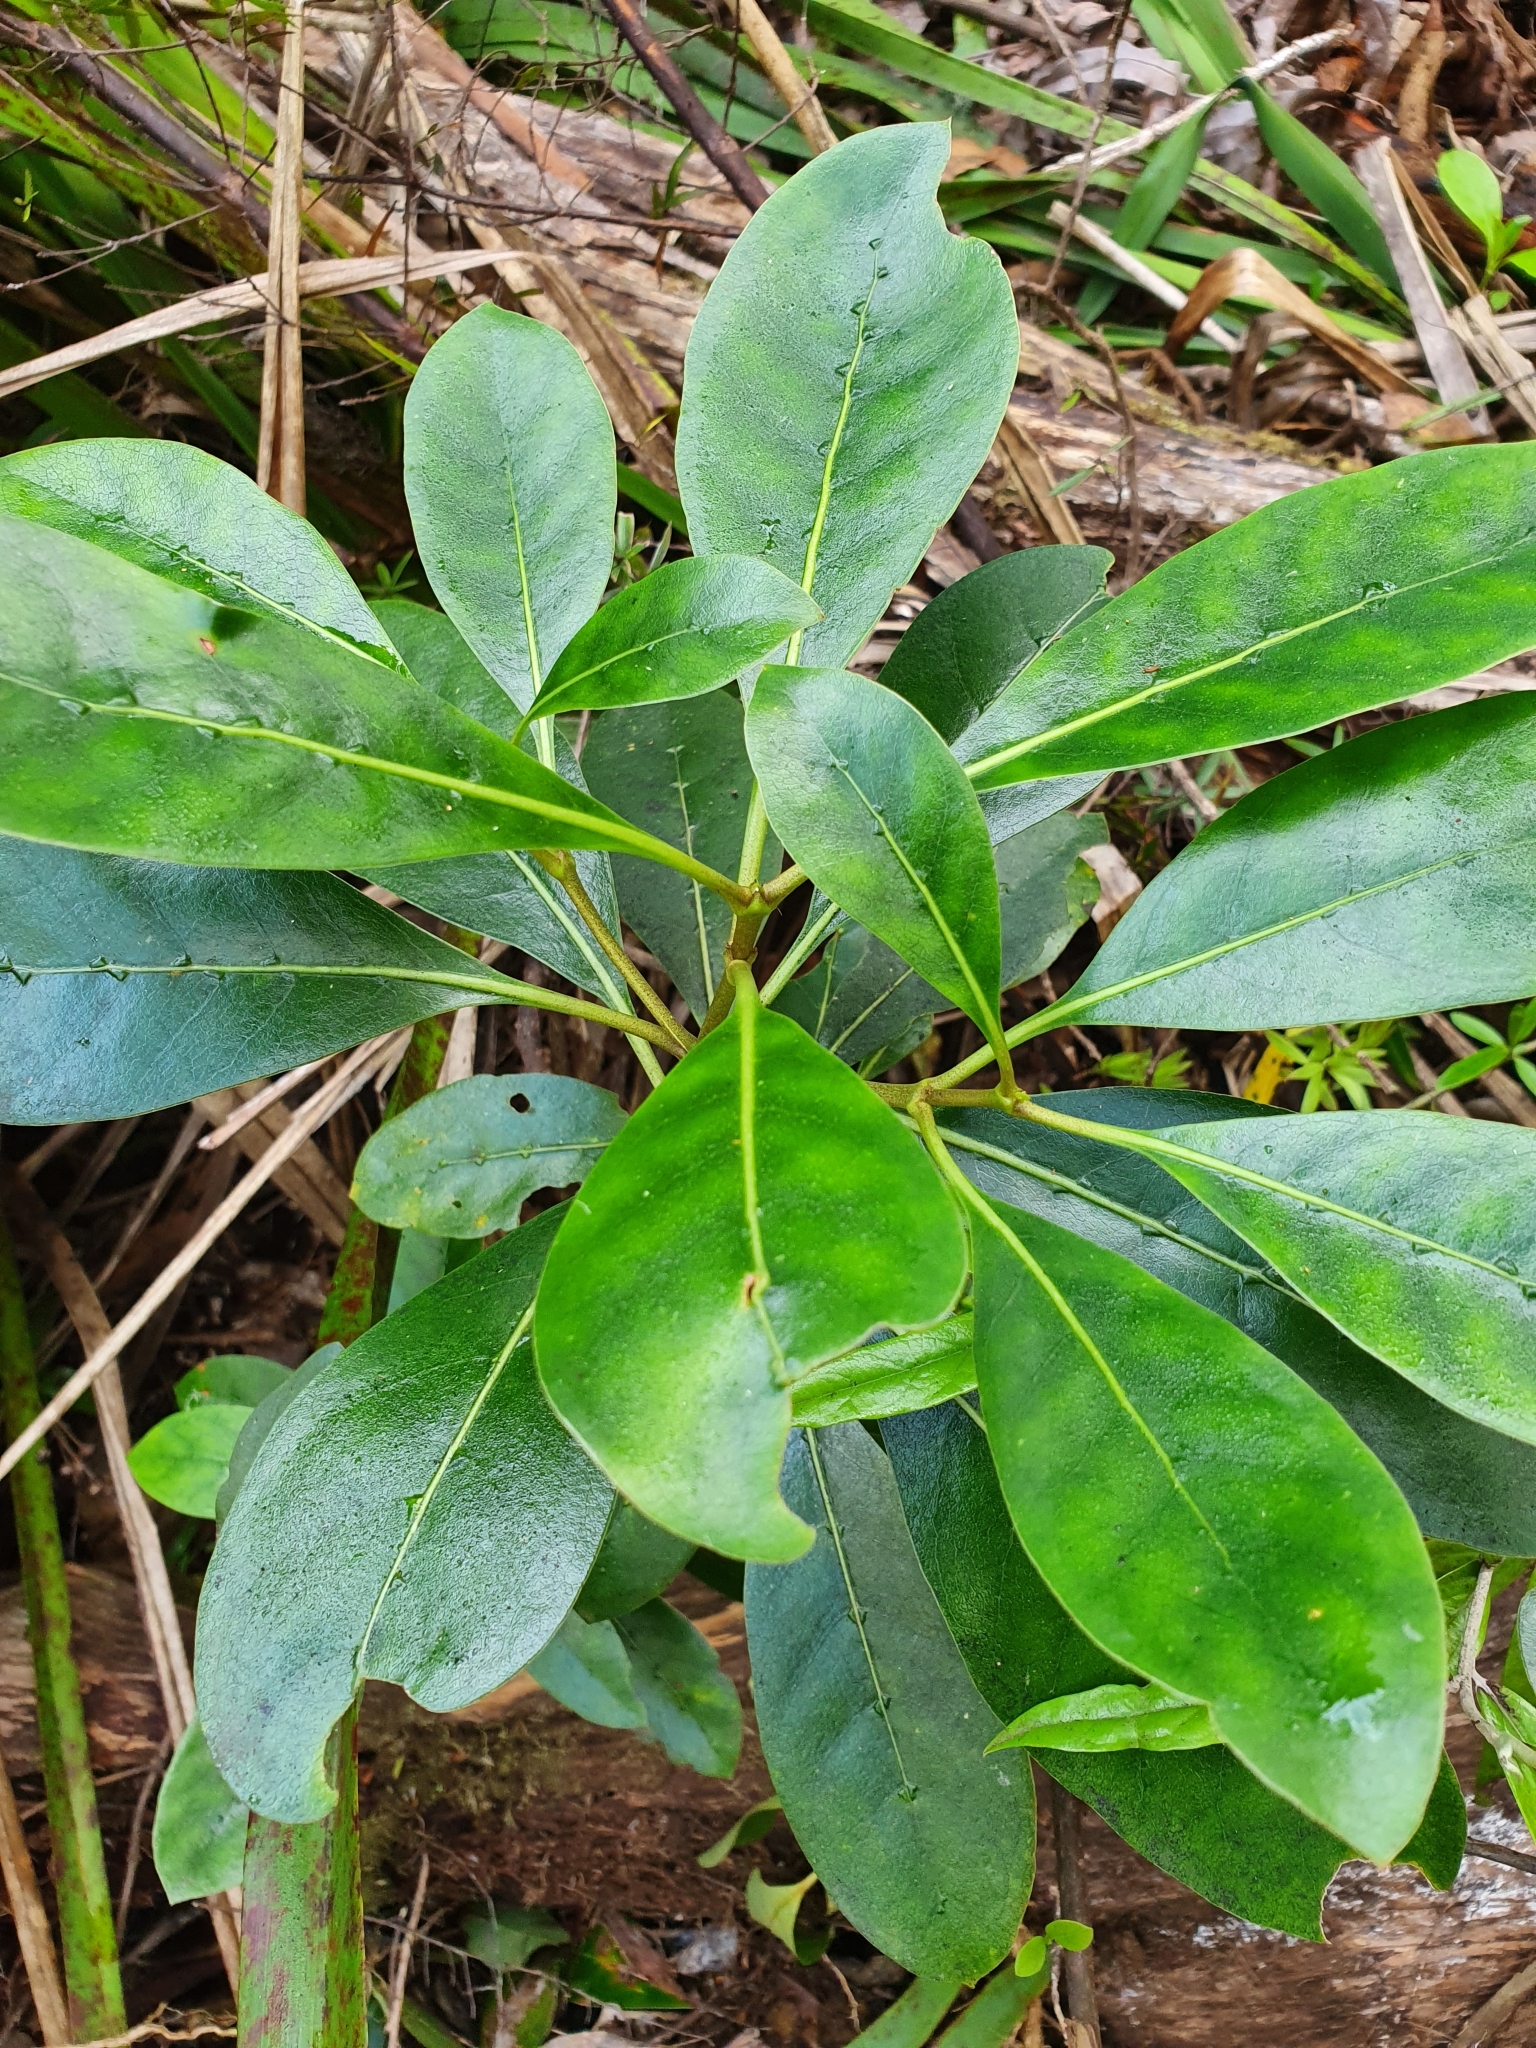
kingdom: Plantae
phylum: Tracheophyta
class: Magnoliopsida
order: Gentianales
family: Rubiaceae
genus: Coprosma
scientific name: Coprosma lucida
